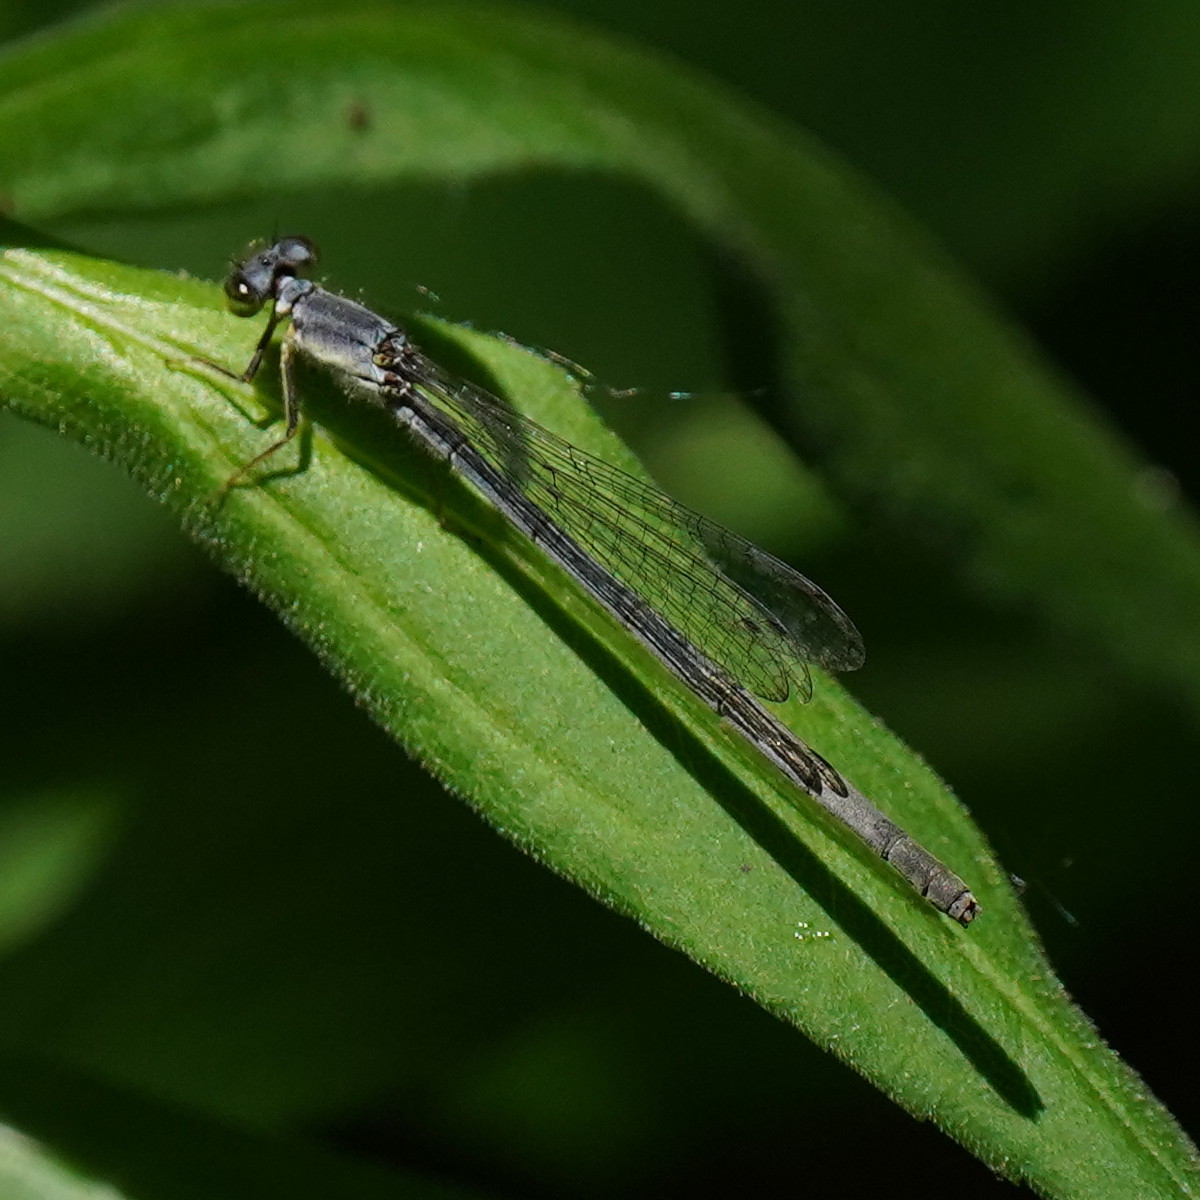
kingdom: Animalia
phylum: Arthropoda
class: Insecta
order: Odonata
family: Coenagrionidae
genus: Ischnura
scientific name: Ischnura posita
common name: Fragile forktail
